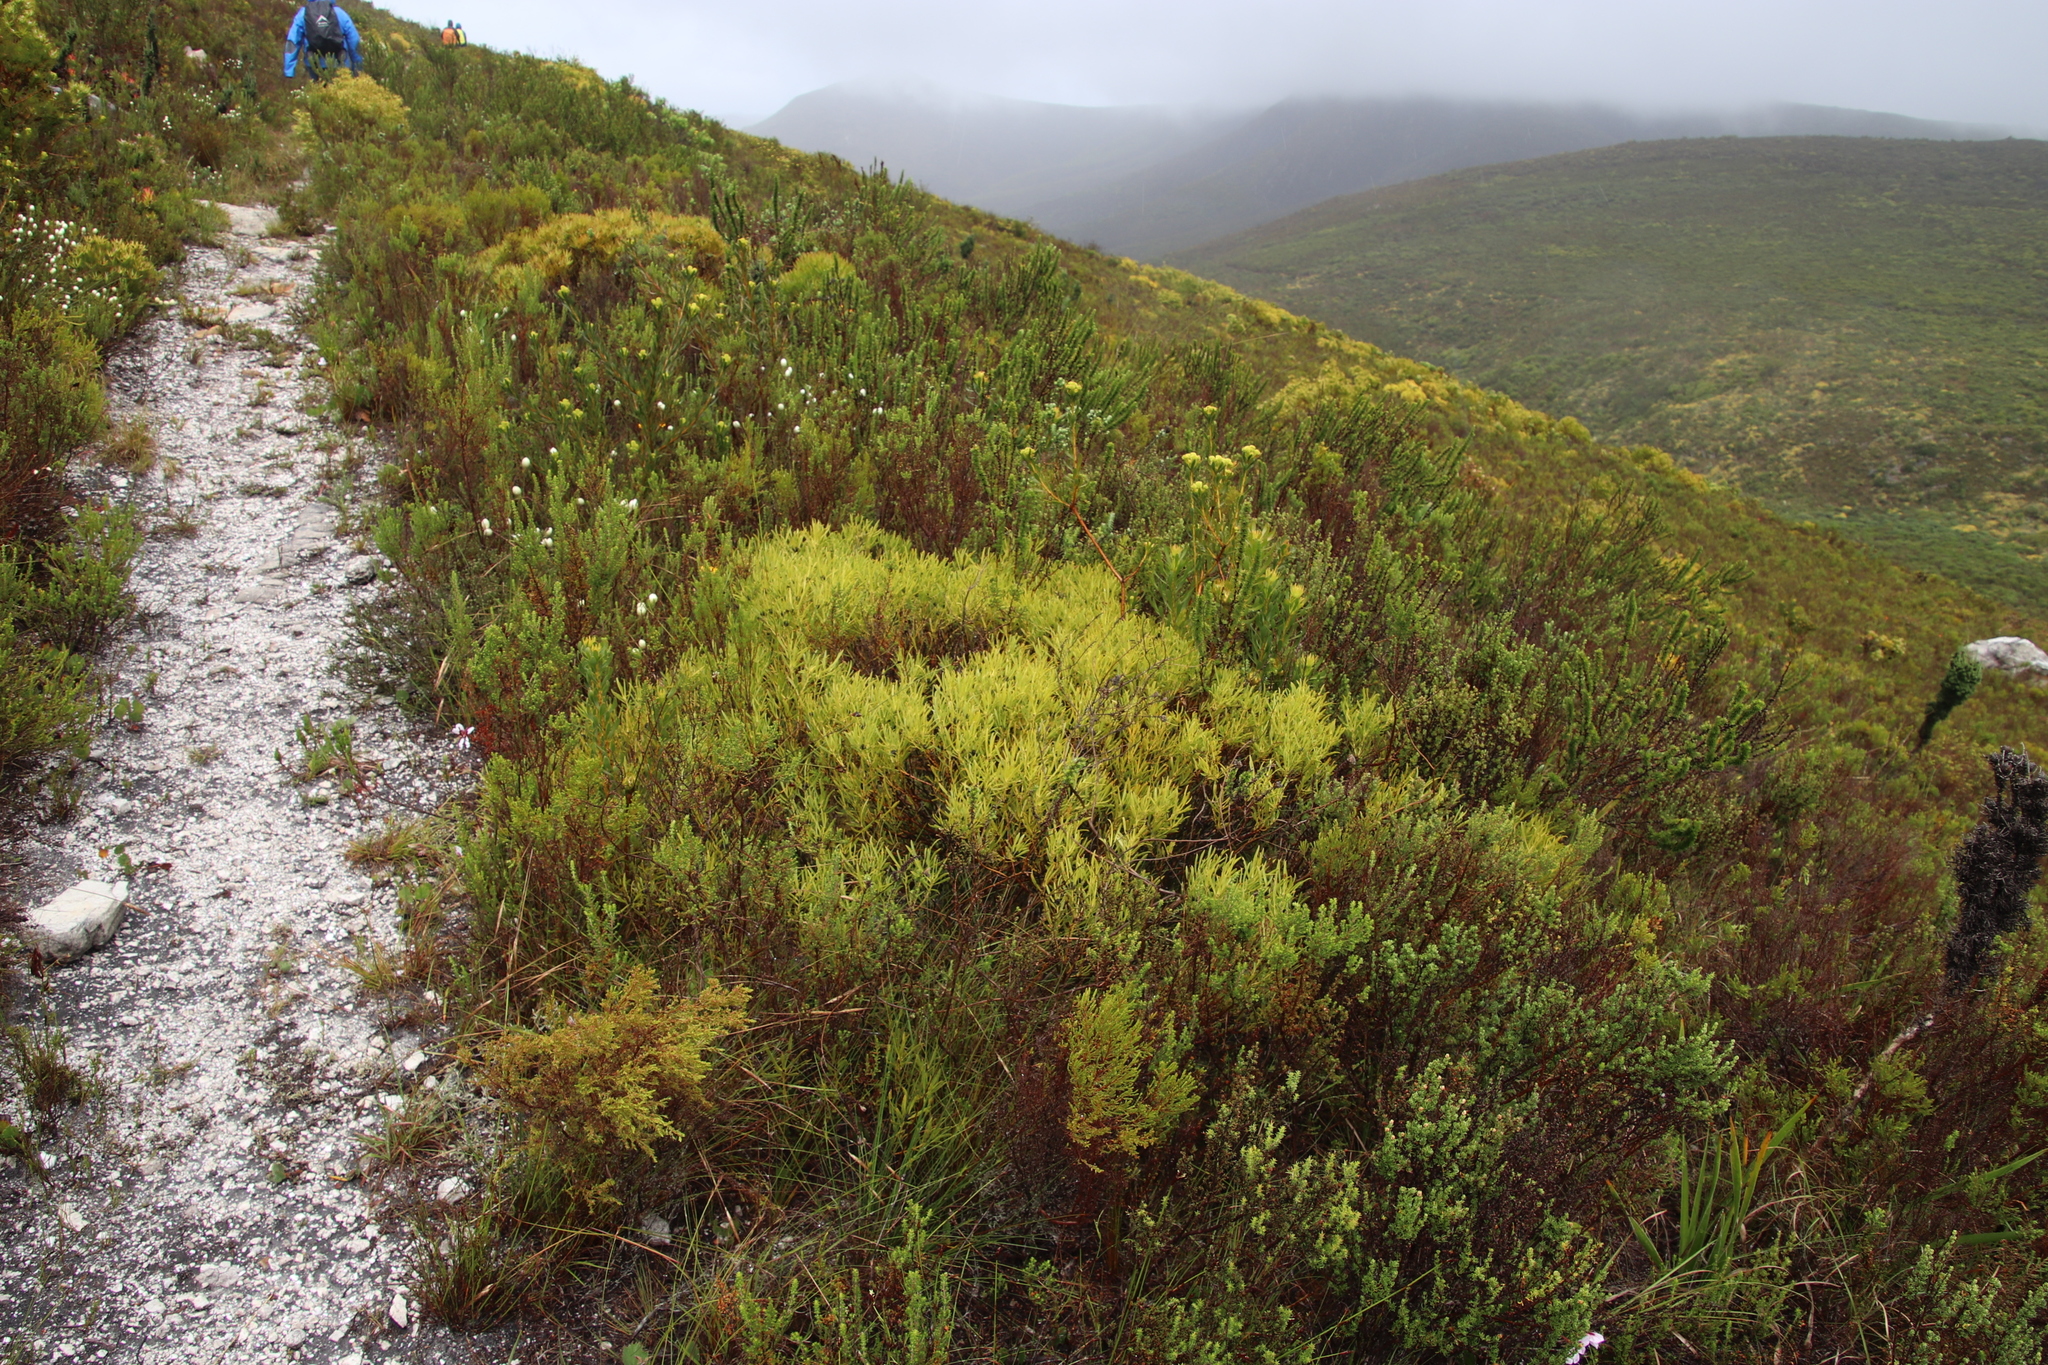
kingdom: Plantae
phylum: Tracheophyta
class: Magnoliopsida
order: Proteales
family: Proteaceae
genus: Leucadendron
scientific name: Leucadendron salignum
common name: Common sunshine conebush
